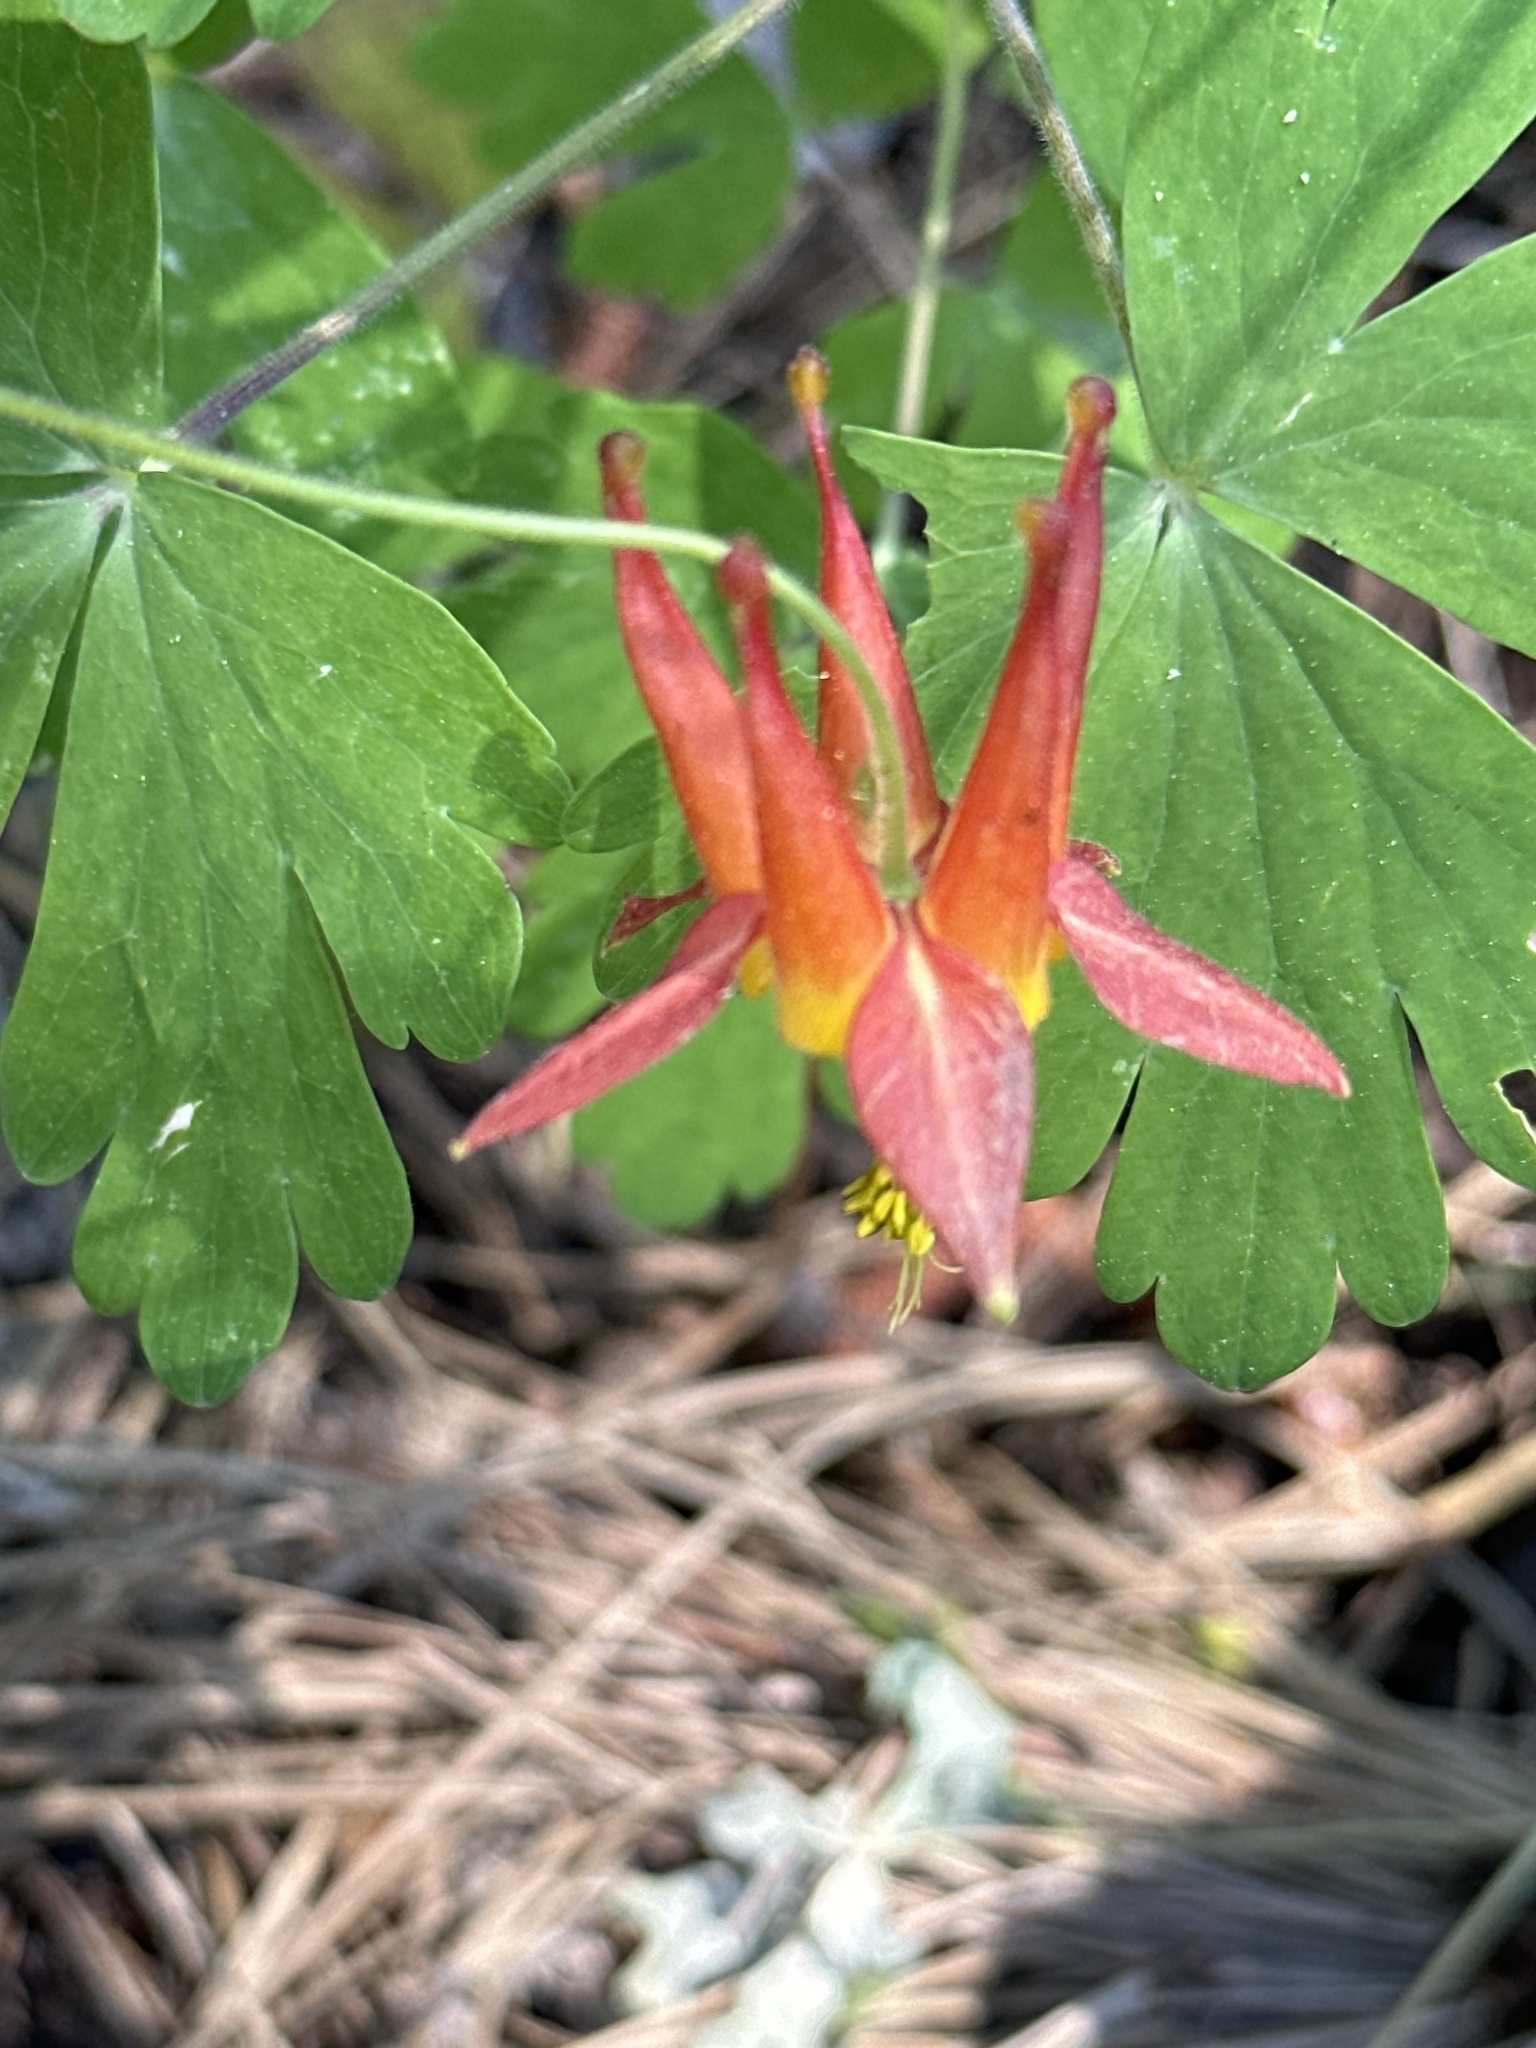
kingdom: Plantae
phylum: Tracheophyta
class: Magnoliopsida
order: Ranunculales
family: Ranunculaceae
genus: Aquilegia
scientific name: Aquilegia formosa
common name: Sitka columbine
